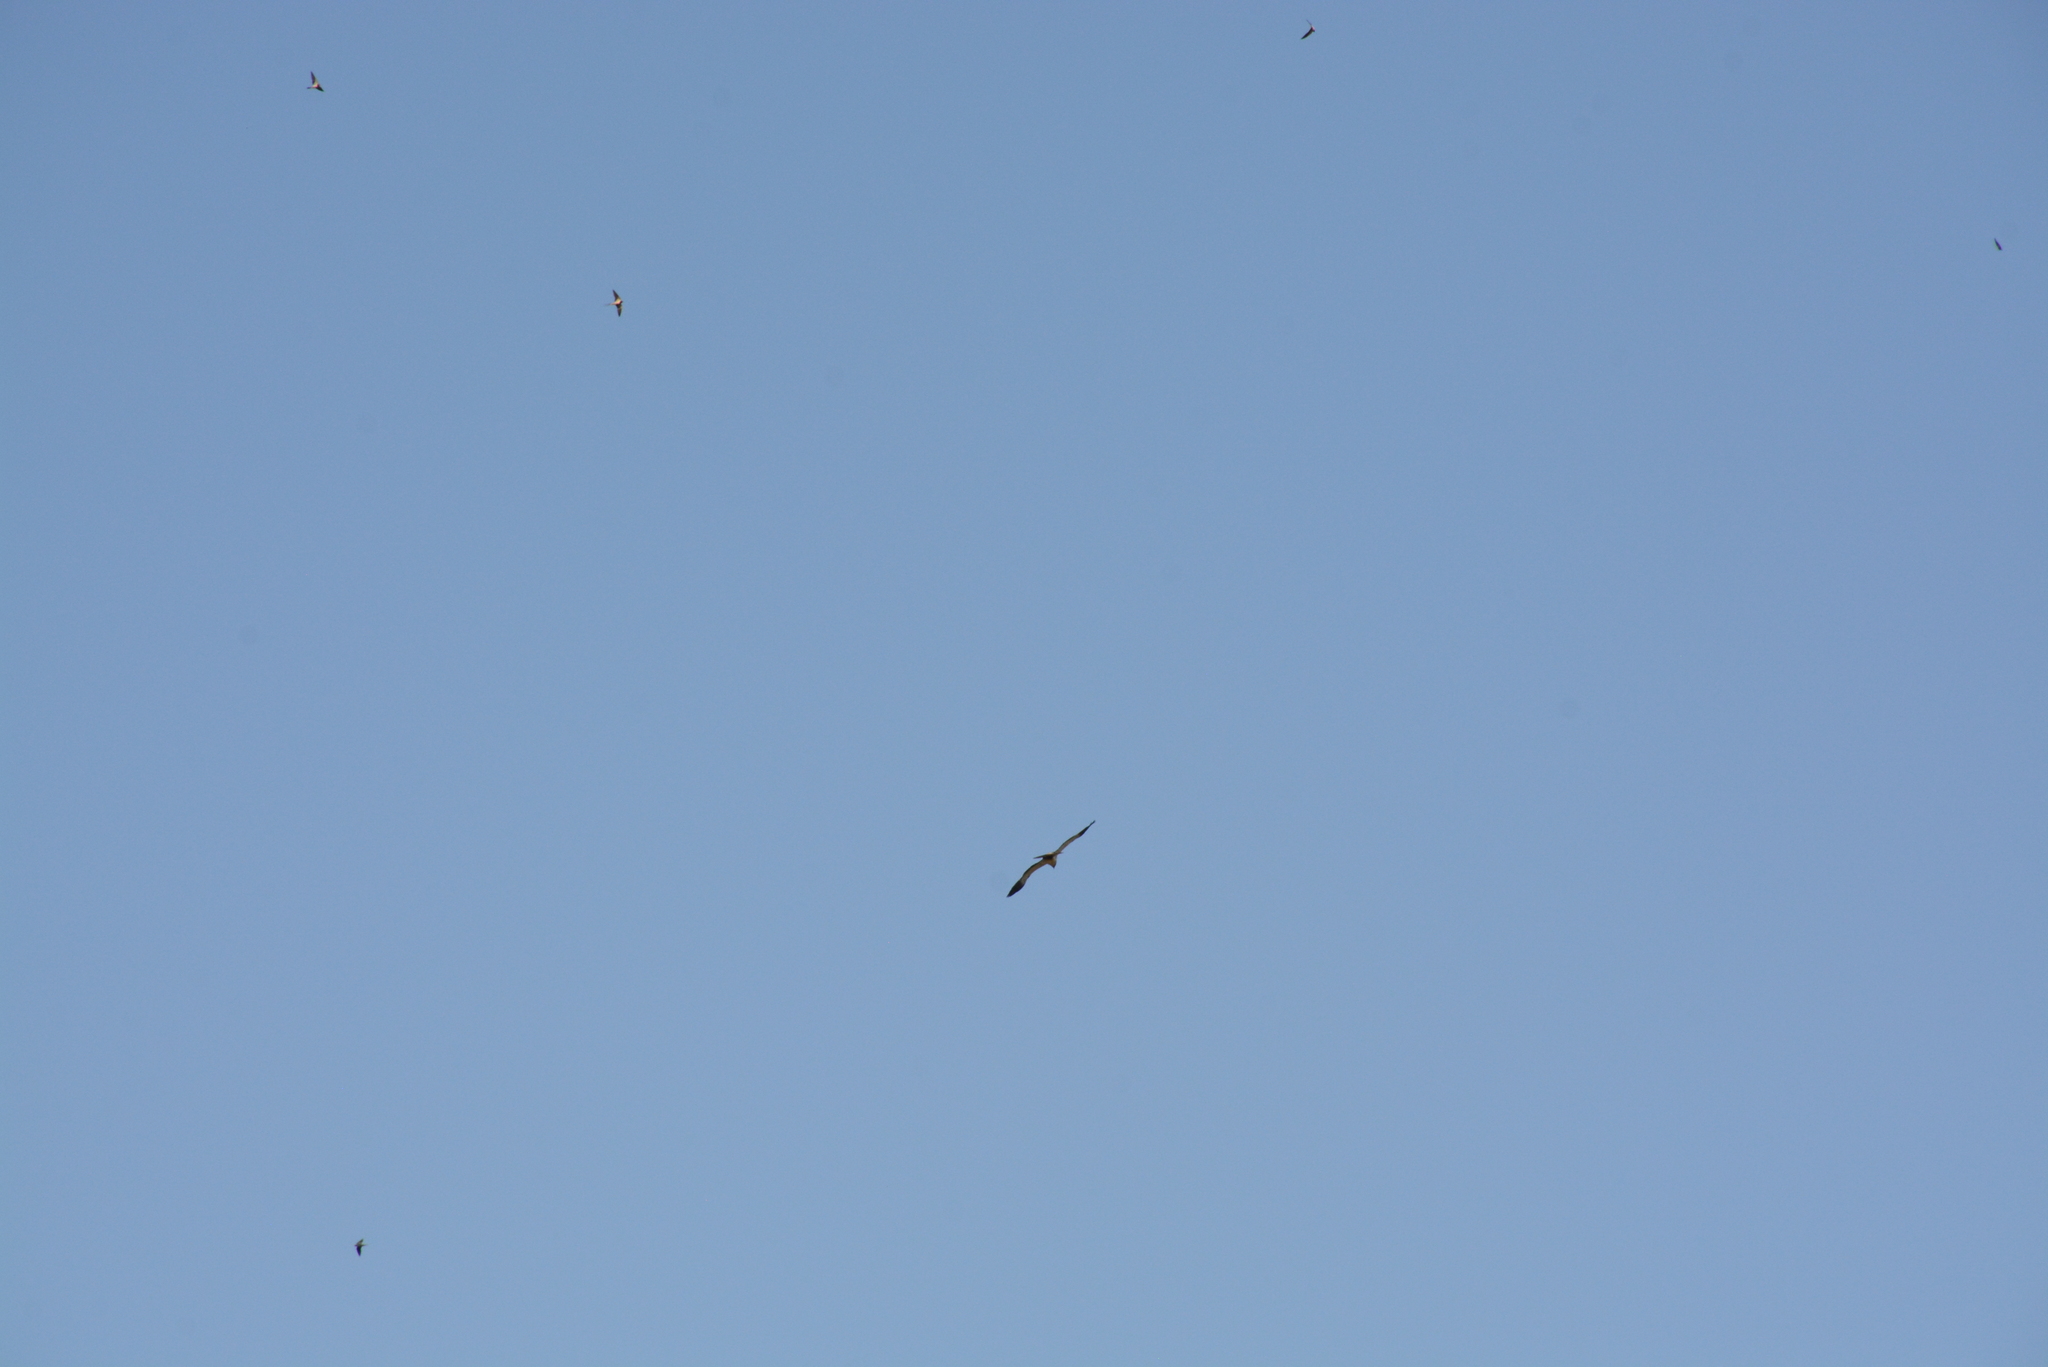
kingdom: Animalia
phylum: Chordata
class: Aves
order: Passeriformes
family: Hirundinidae
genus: Hirundo
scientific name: Hirundo rustica
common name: Barn swallow
